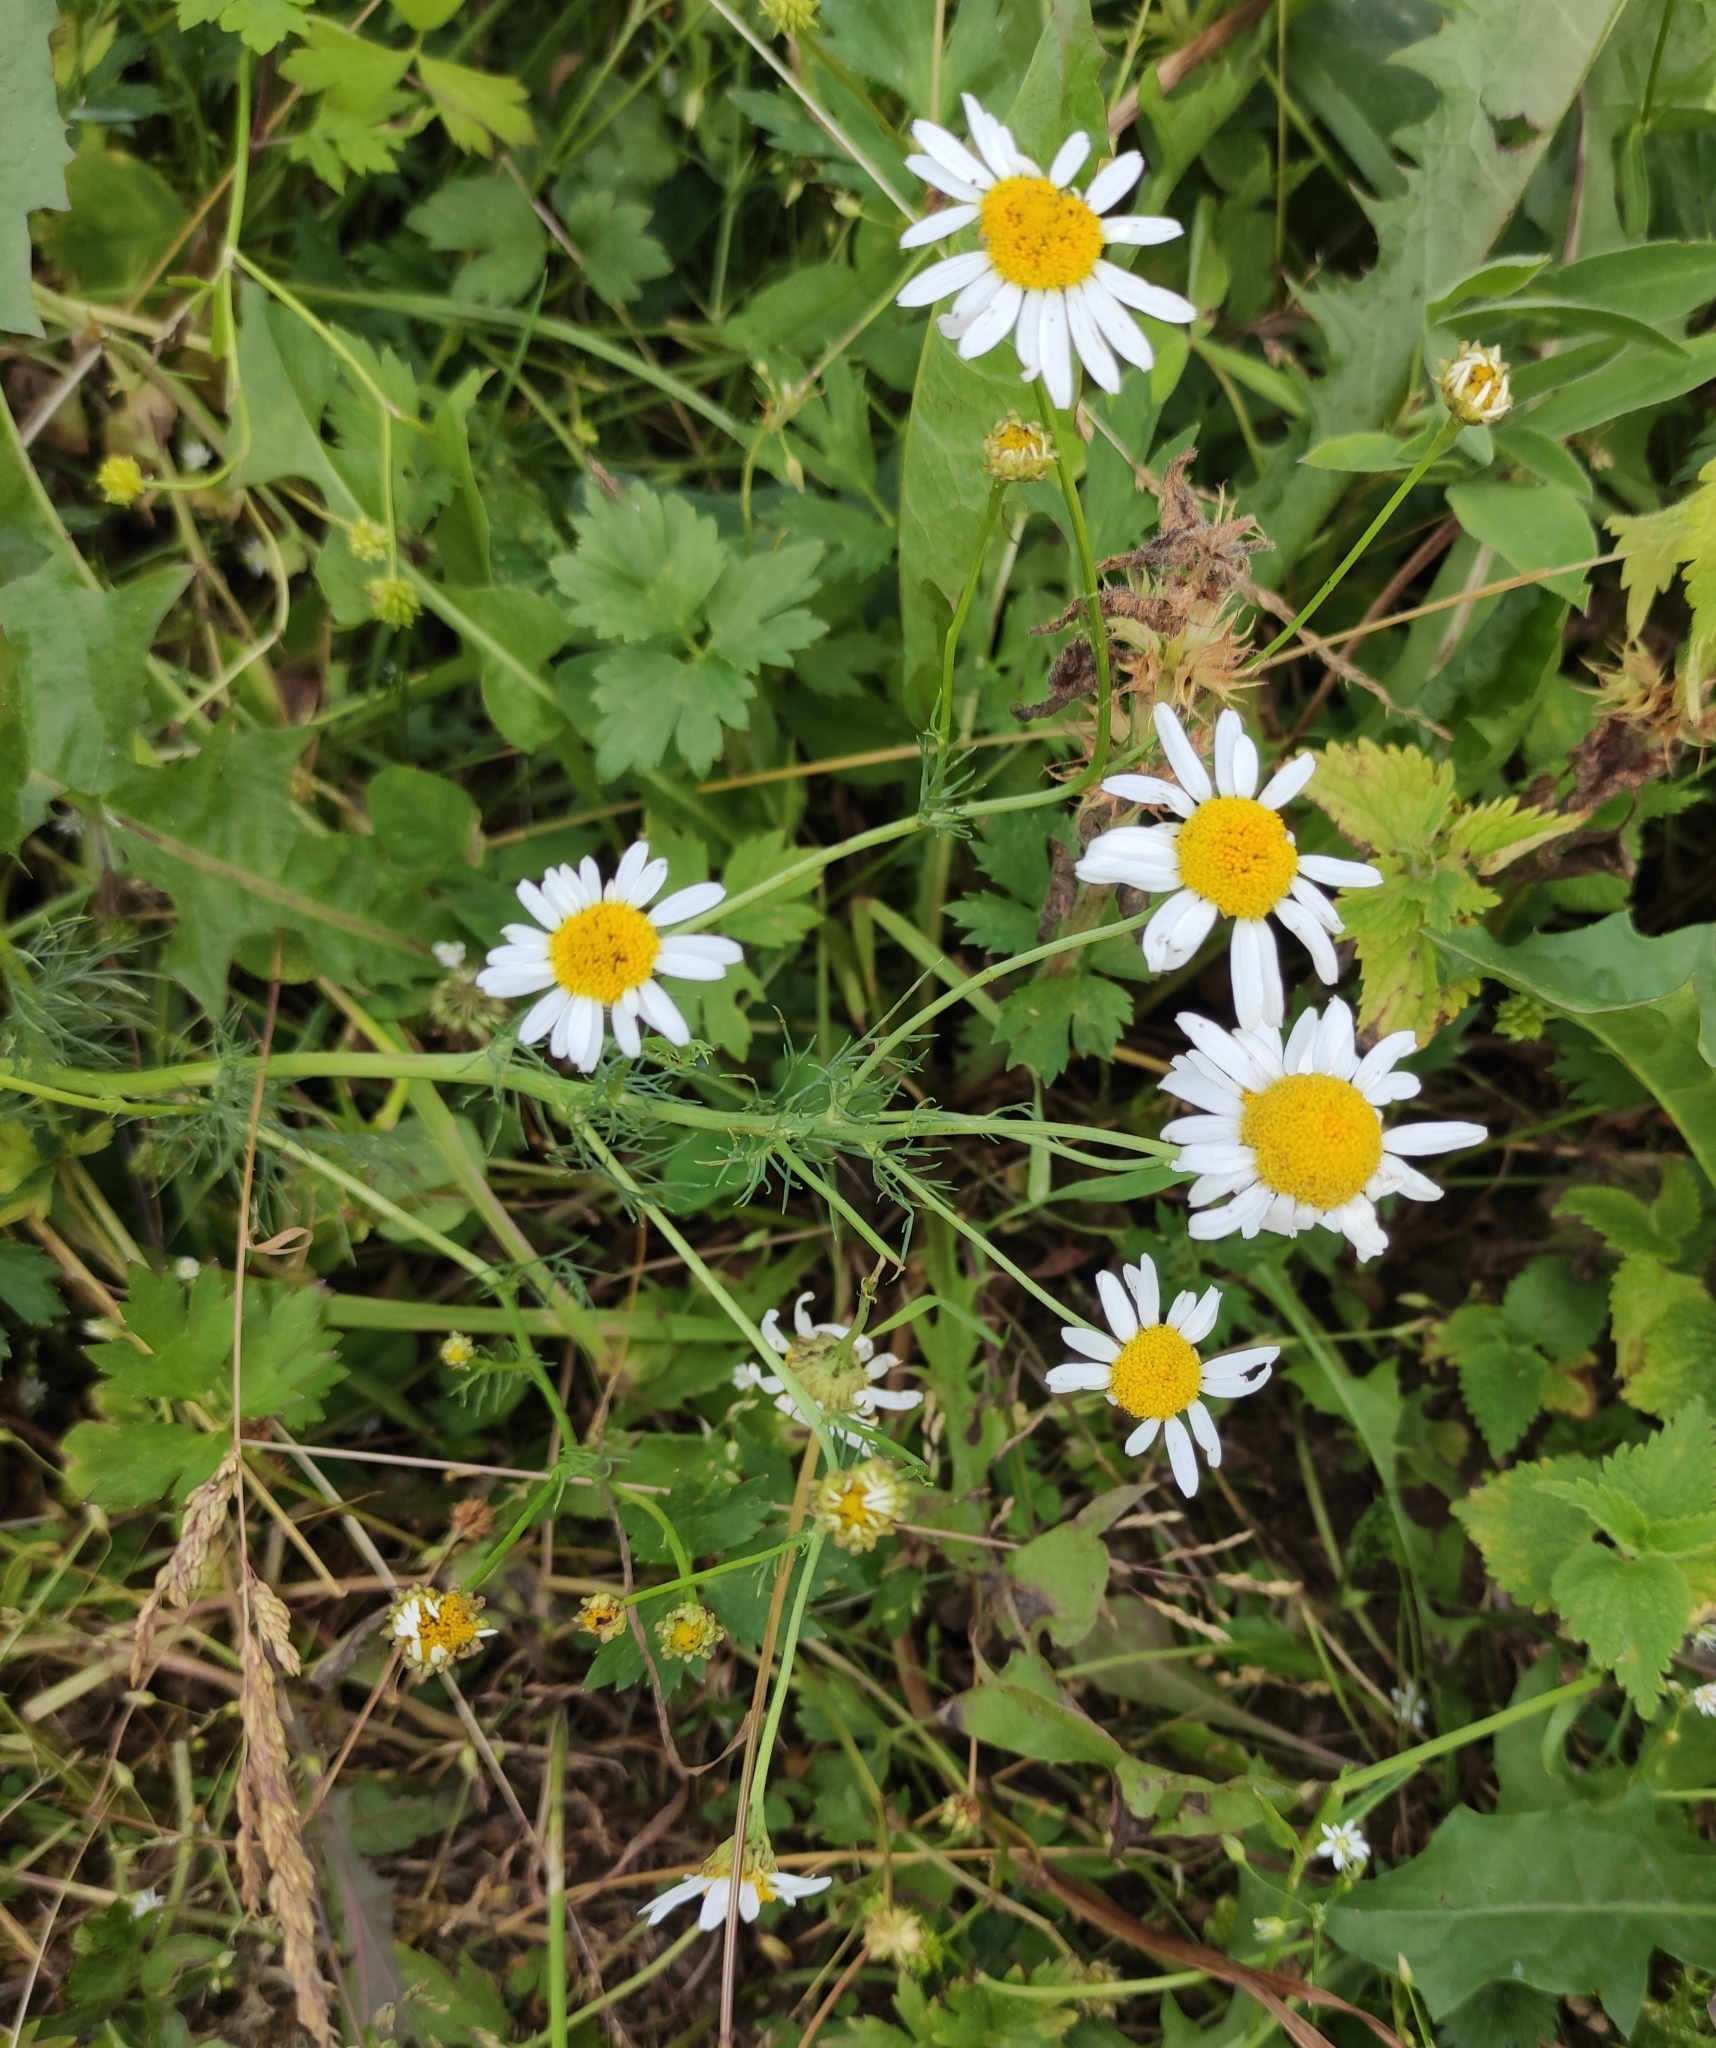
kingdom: Plantae
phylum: Tracheophyta
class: Magnoliopsida
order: Asterales
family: Asteraceae
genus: Tripleurospermum
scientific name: Tripleurospermum inodorum
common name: Scentless mayweed
